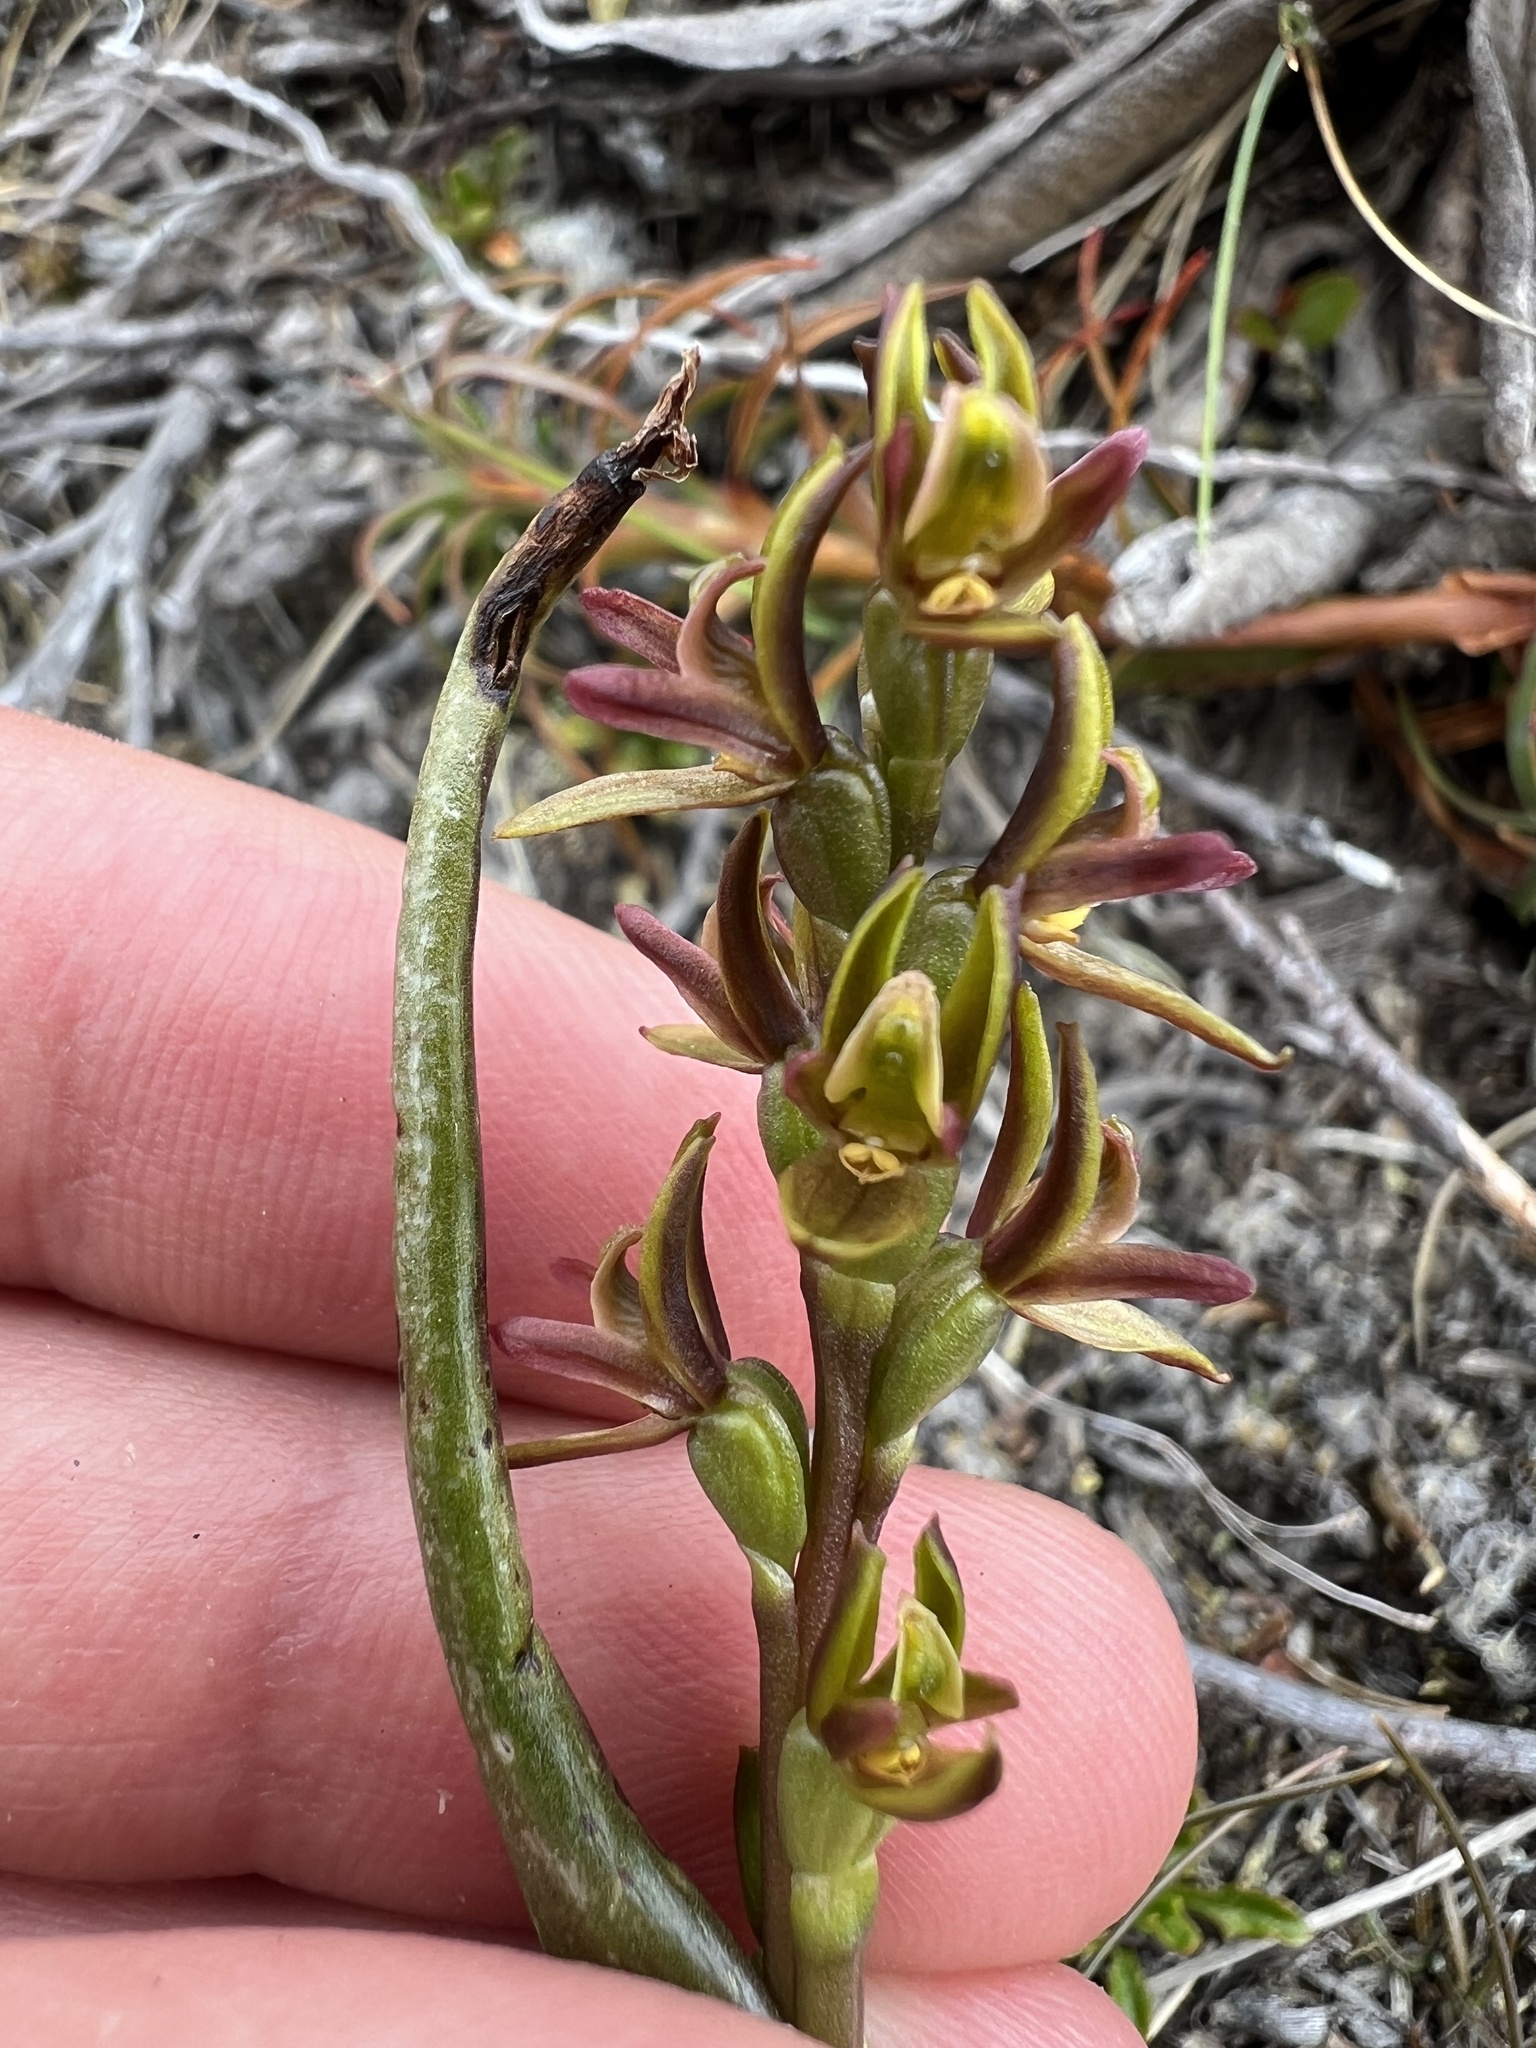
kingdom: Plantae
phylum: Tracheophyta
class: Liliopsida
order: Asparagales
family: Orchidaceae
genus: Prasophyllum
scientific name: Prasophyllum colensoi
